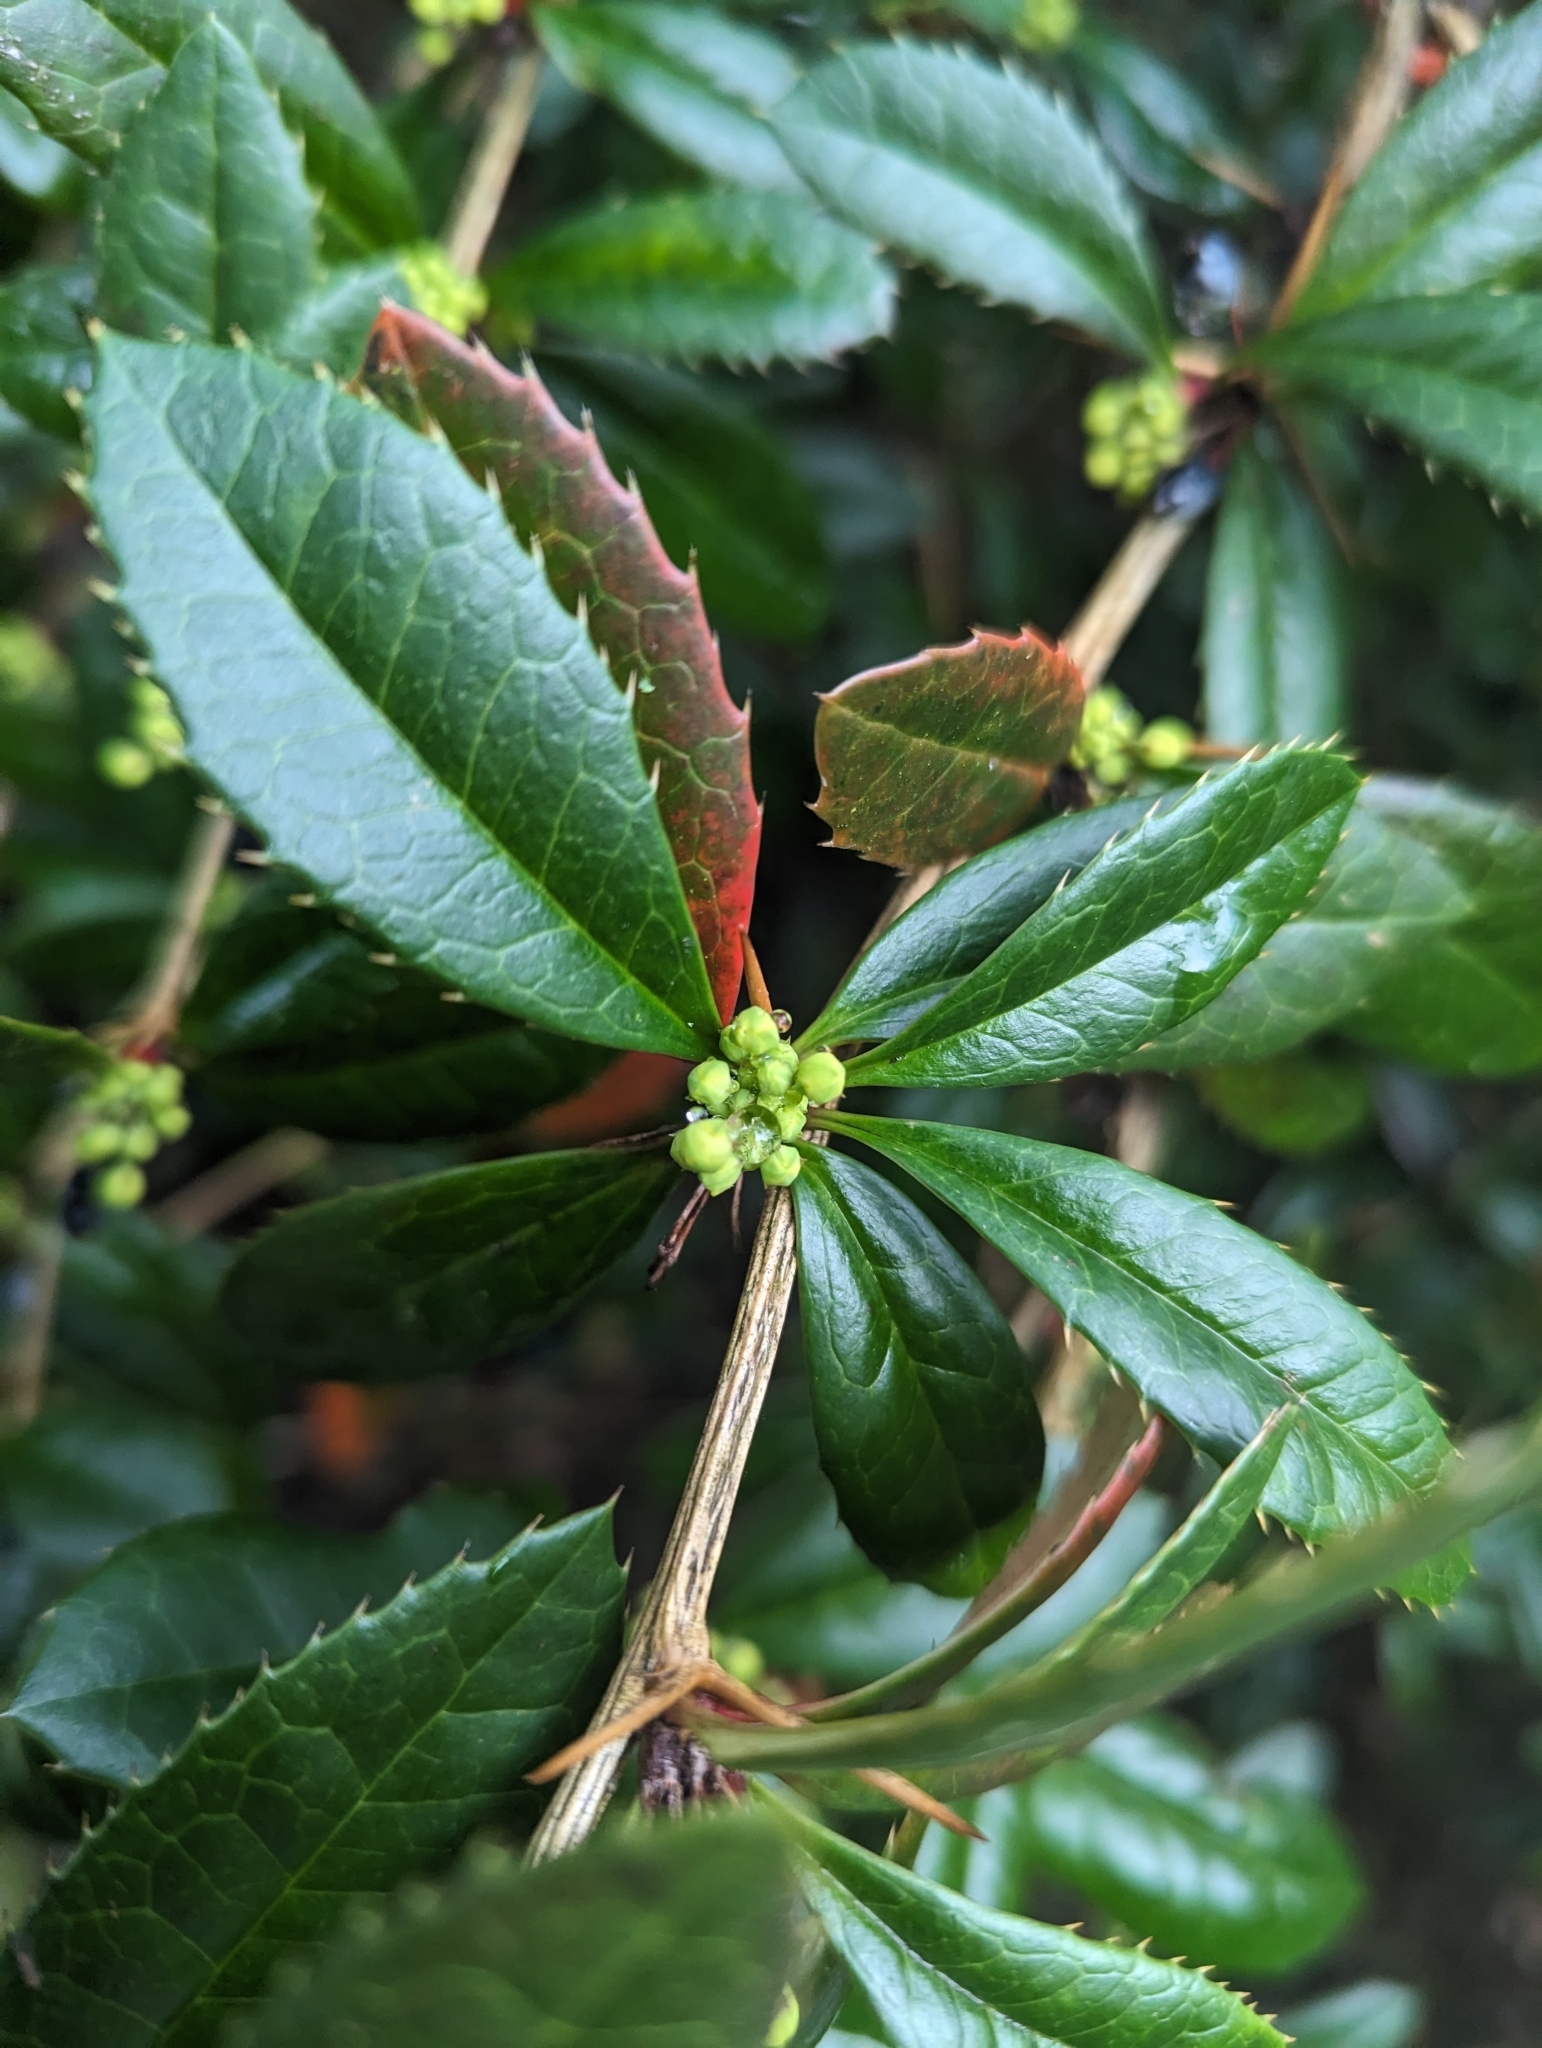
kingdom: Plantae
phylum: Tracheophyta
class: Magnoliopsida
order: Ranunculales
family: Berberidaceae
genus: Berberis
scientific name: Berberis julianae
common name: Wintergreen barberry
